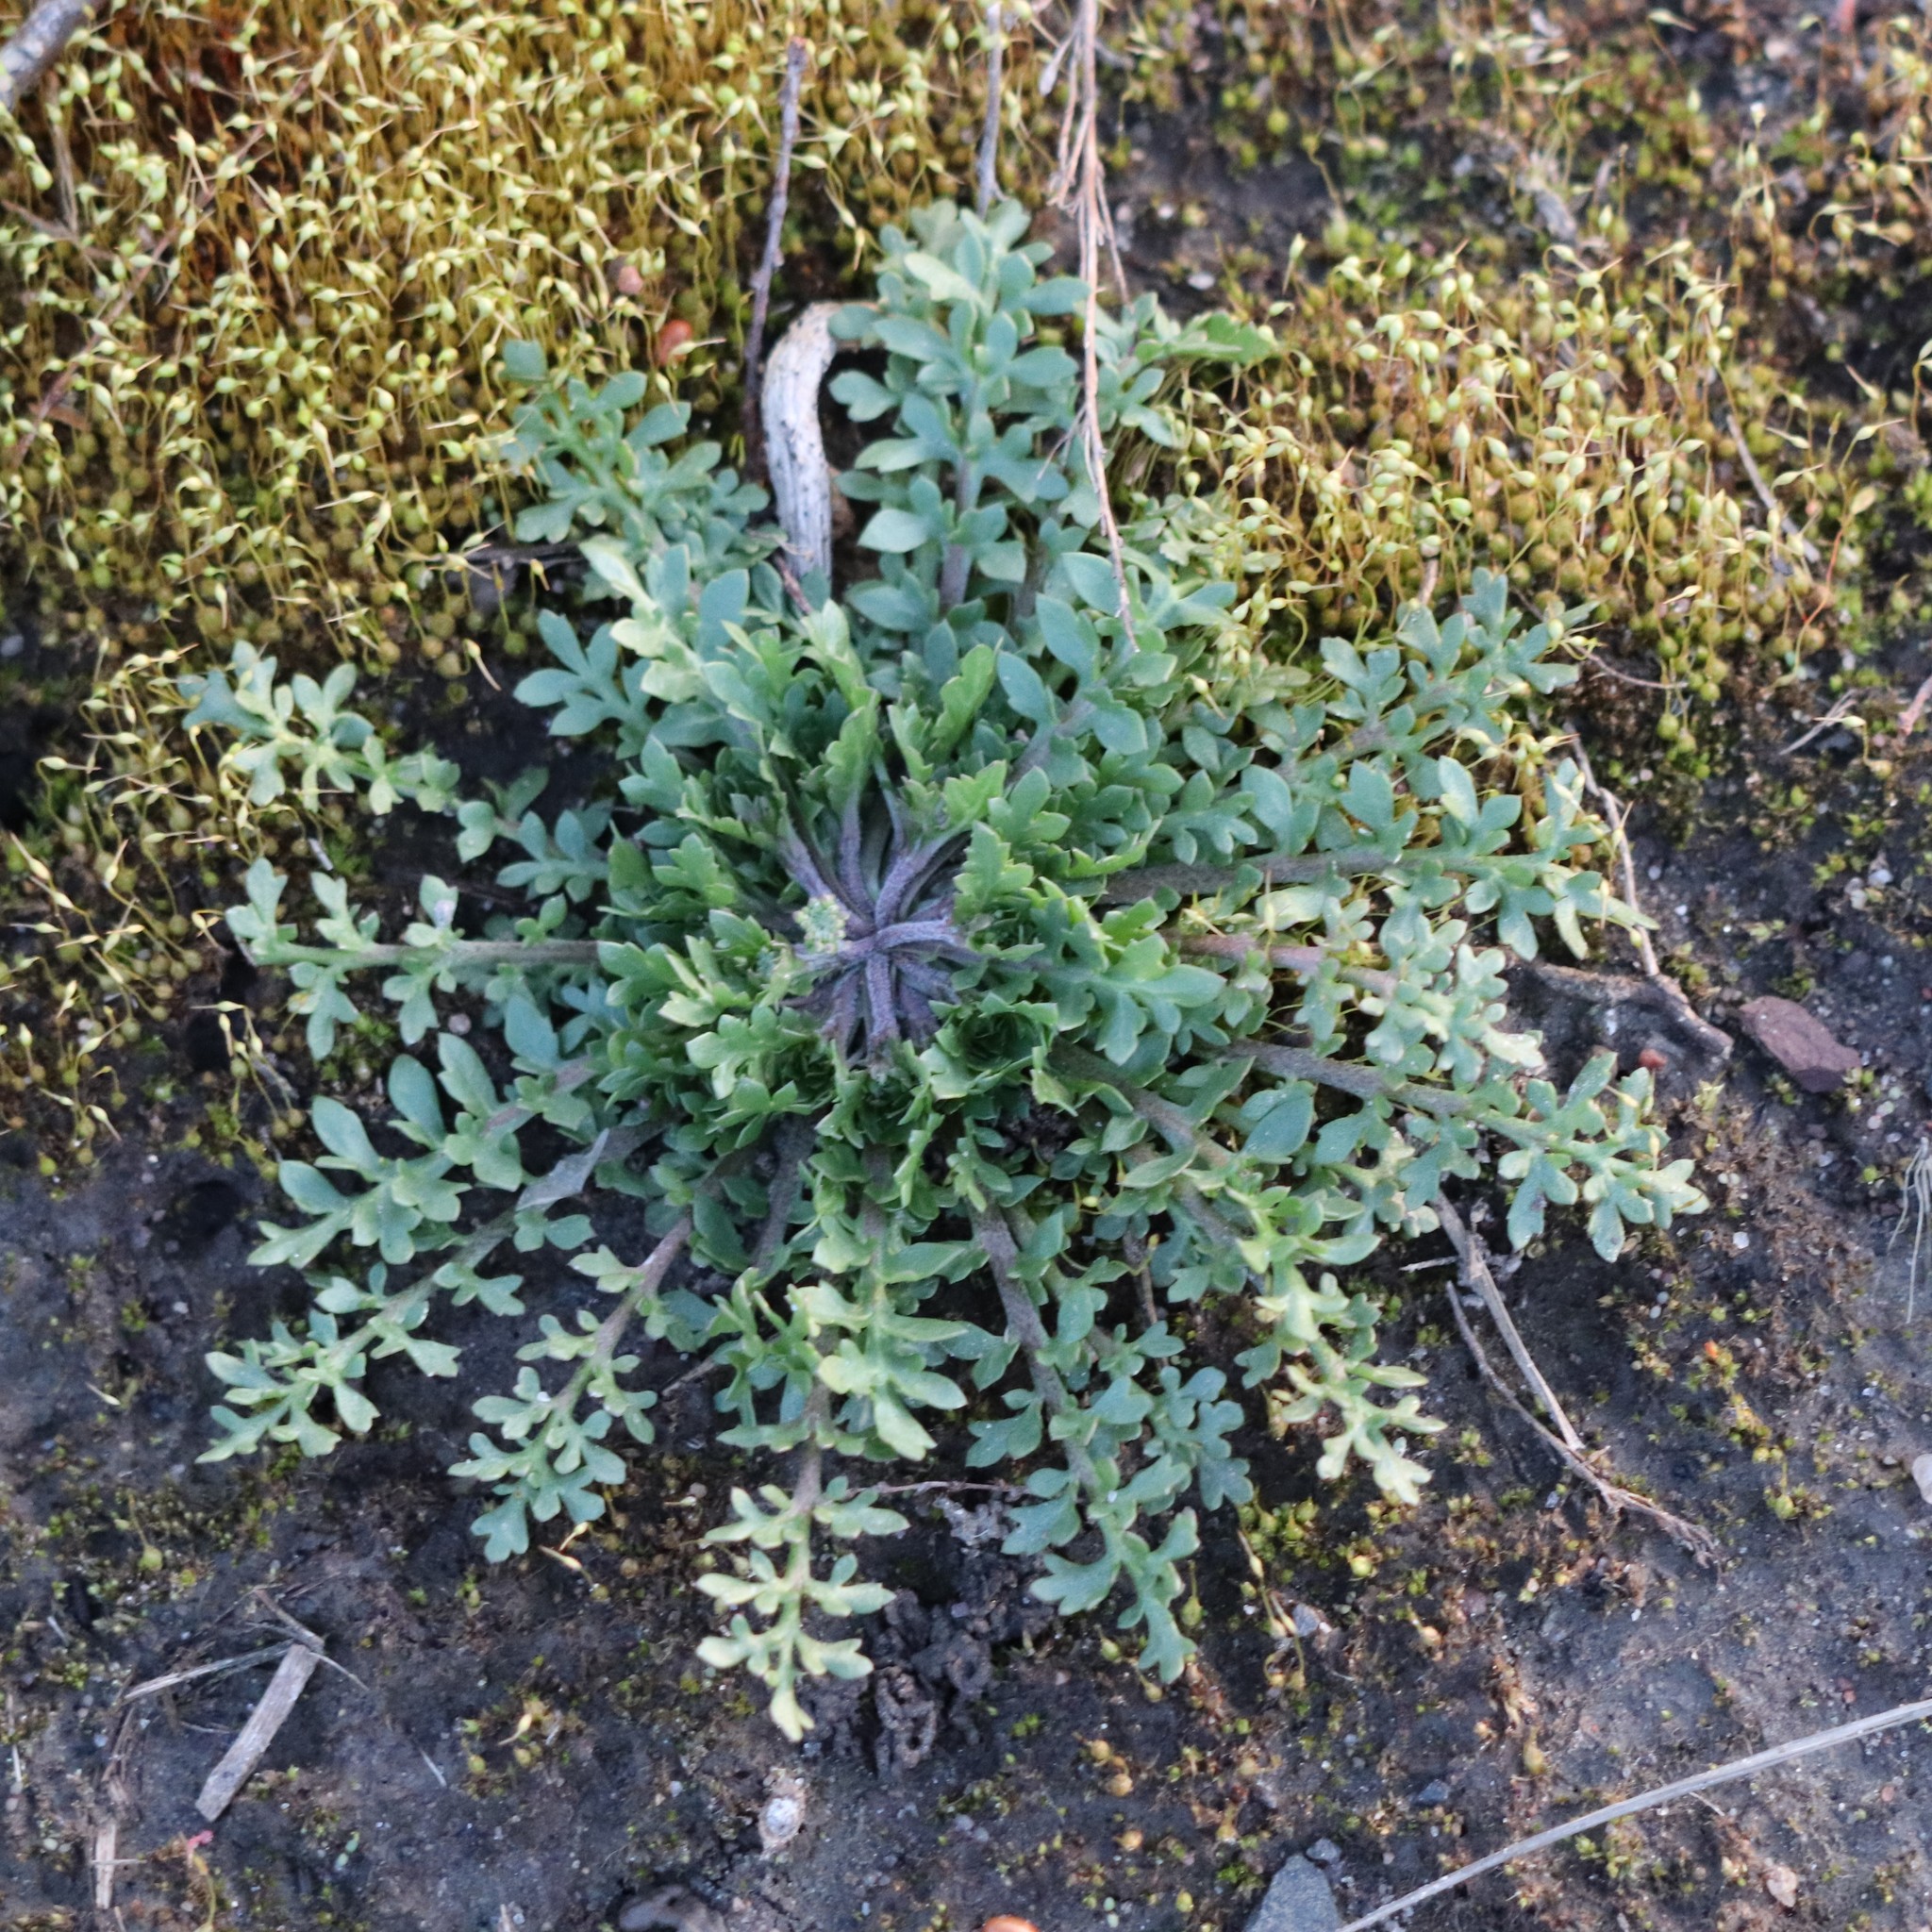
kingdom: Plantae
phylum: Tracheophyta
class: Magnoliopsida
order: Brassicales
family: Brassicaceae
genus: Lepidium
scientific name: Lepidium didymum
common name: Lesser swinecress
